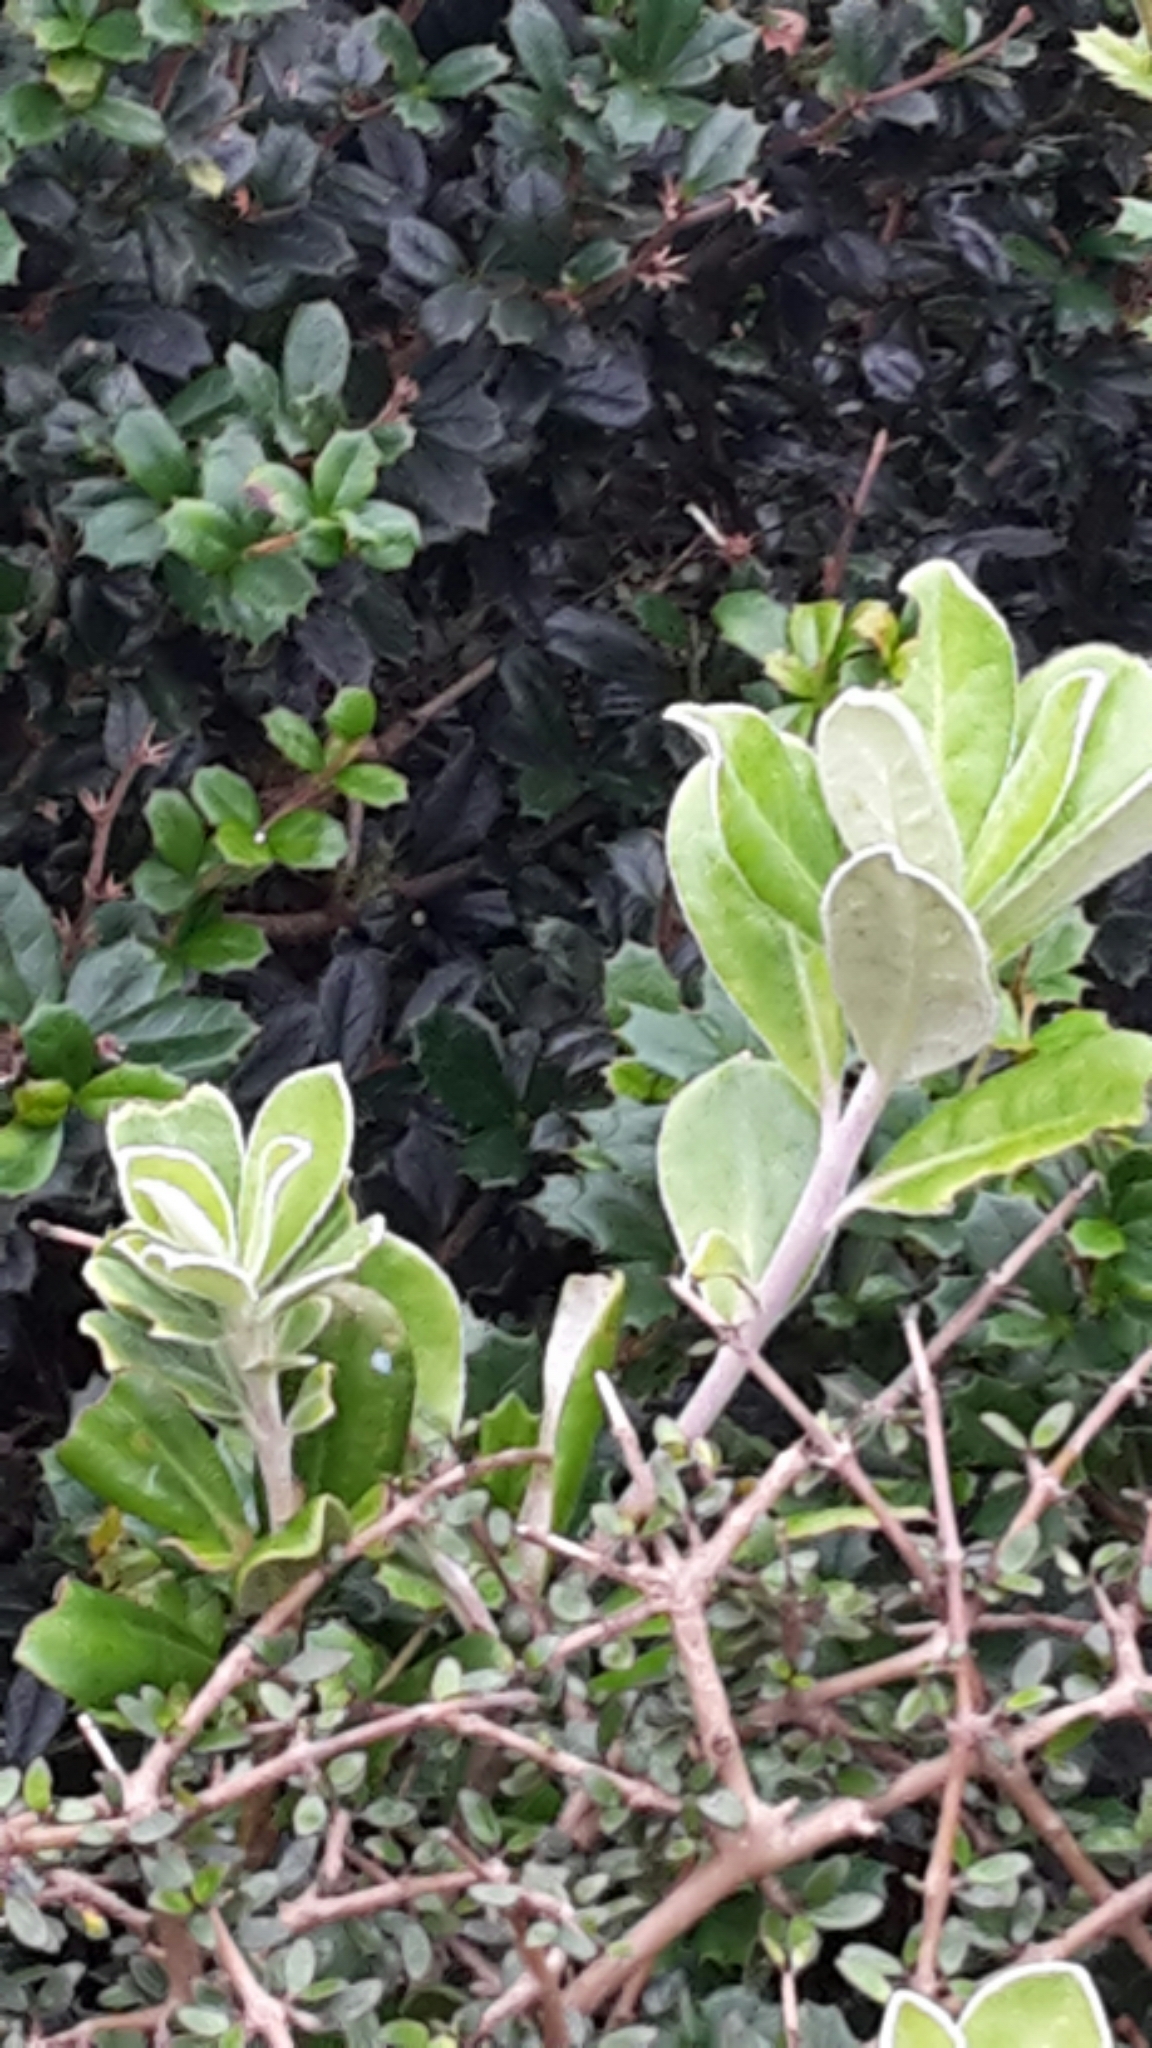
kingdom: Plantae
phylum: Tracheophyta
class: Magnoliopsida
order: Apiales
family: Pittosporaceae
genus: Pittosporum
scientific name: Pittosporum crassifolium
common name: Karo
